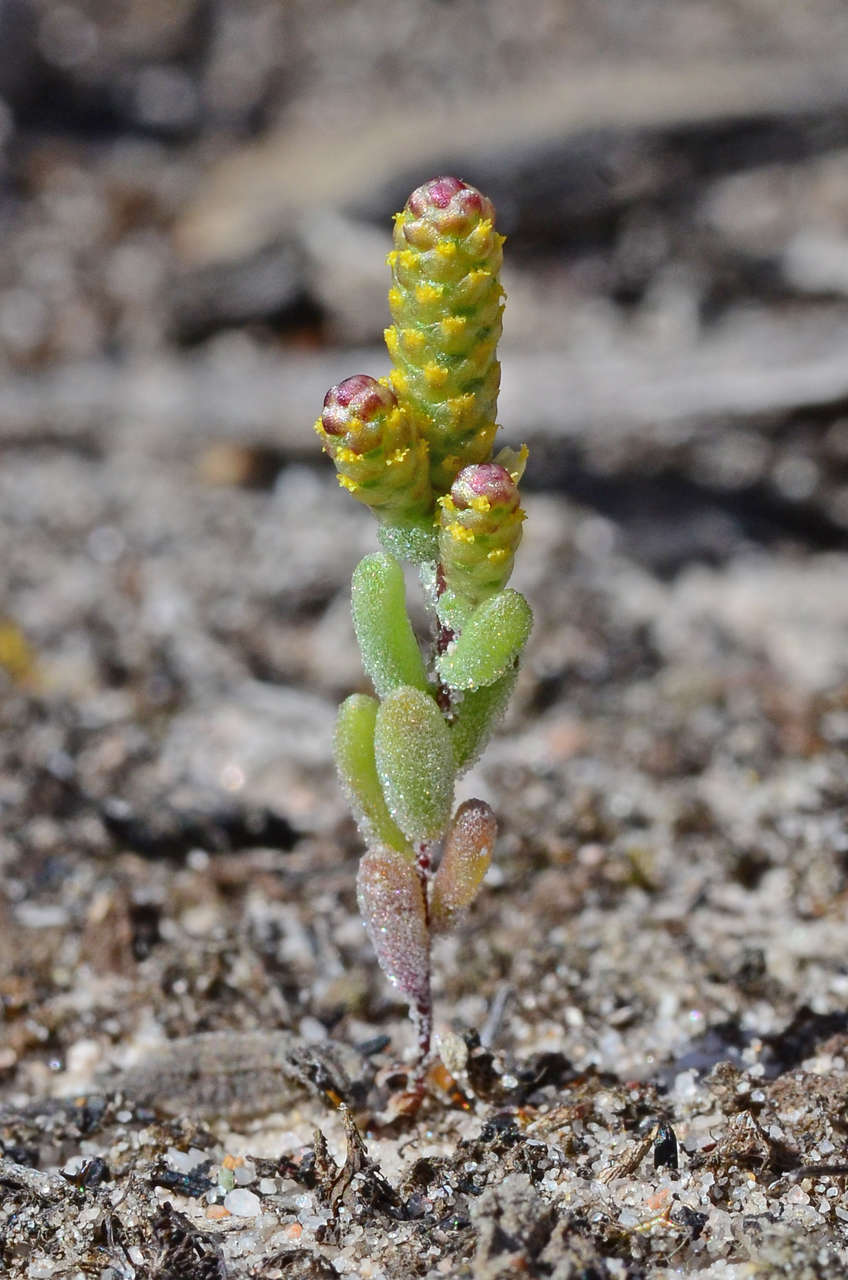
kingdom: Plantae
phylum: Tracheophyta
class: Magnoliopsida
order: Asterales
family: Asteraceae
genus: Gnephosis
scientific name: Gnephosis drummondii
